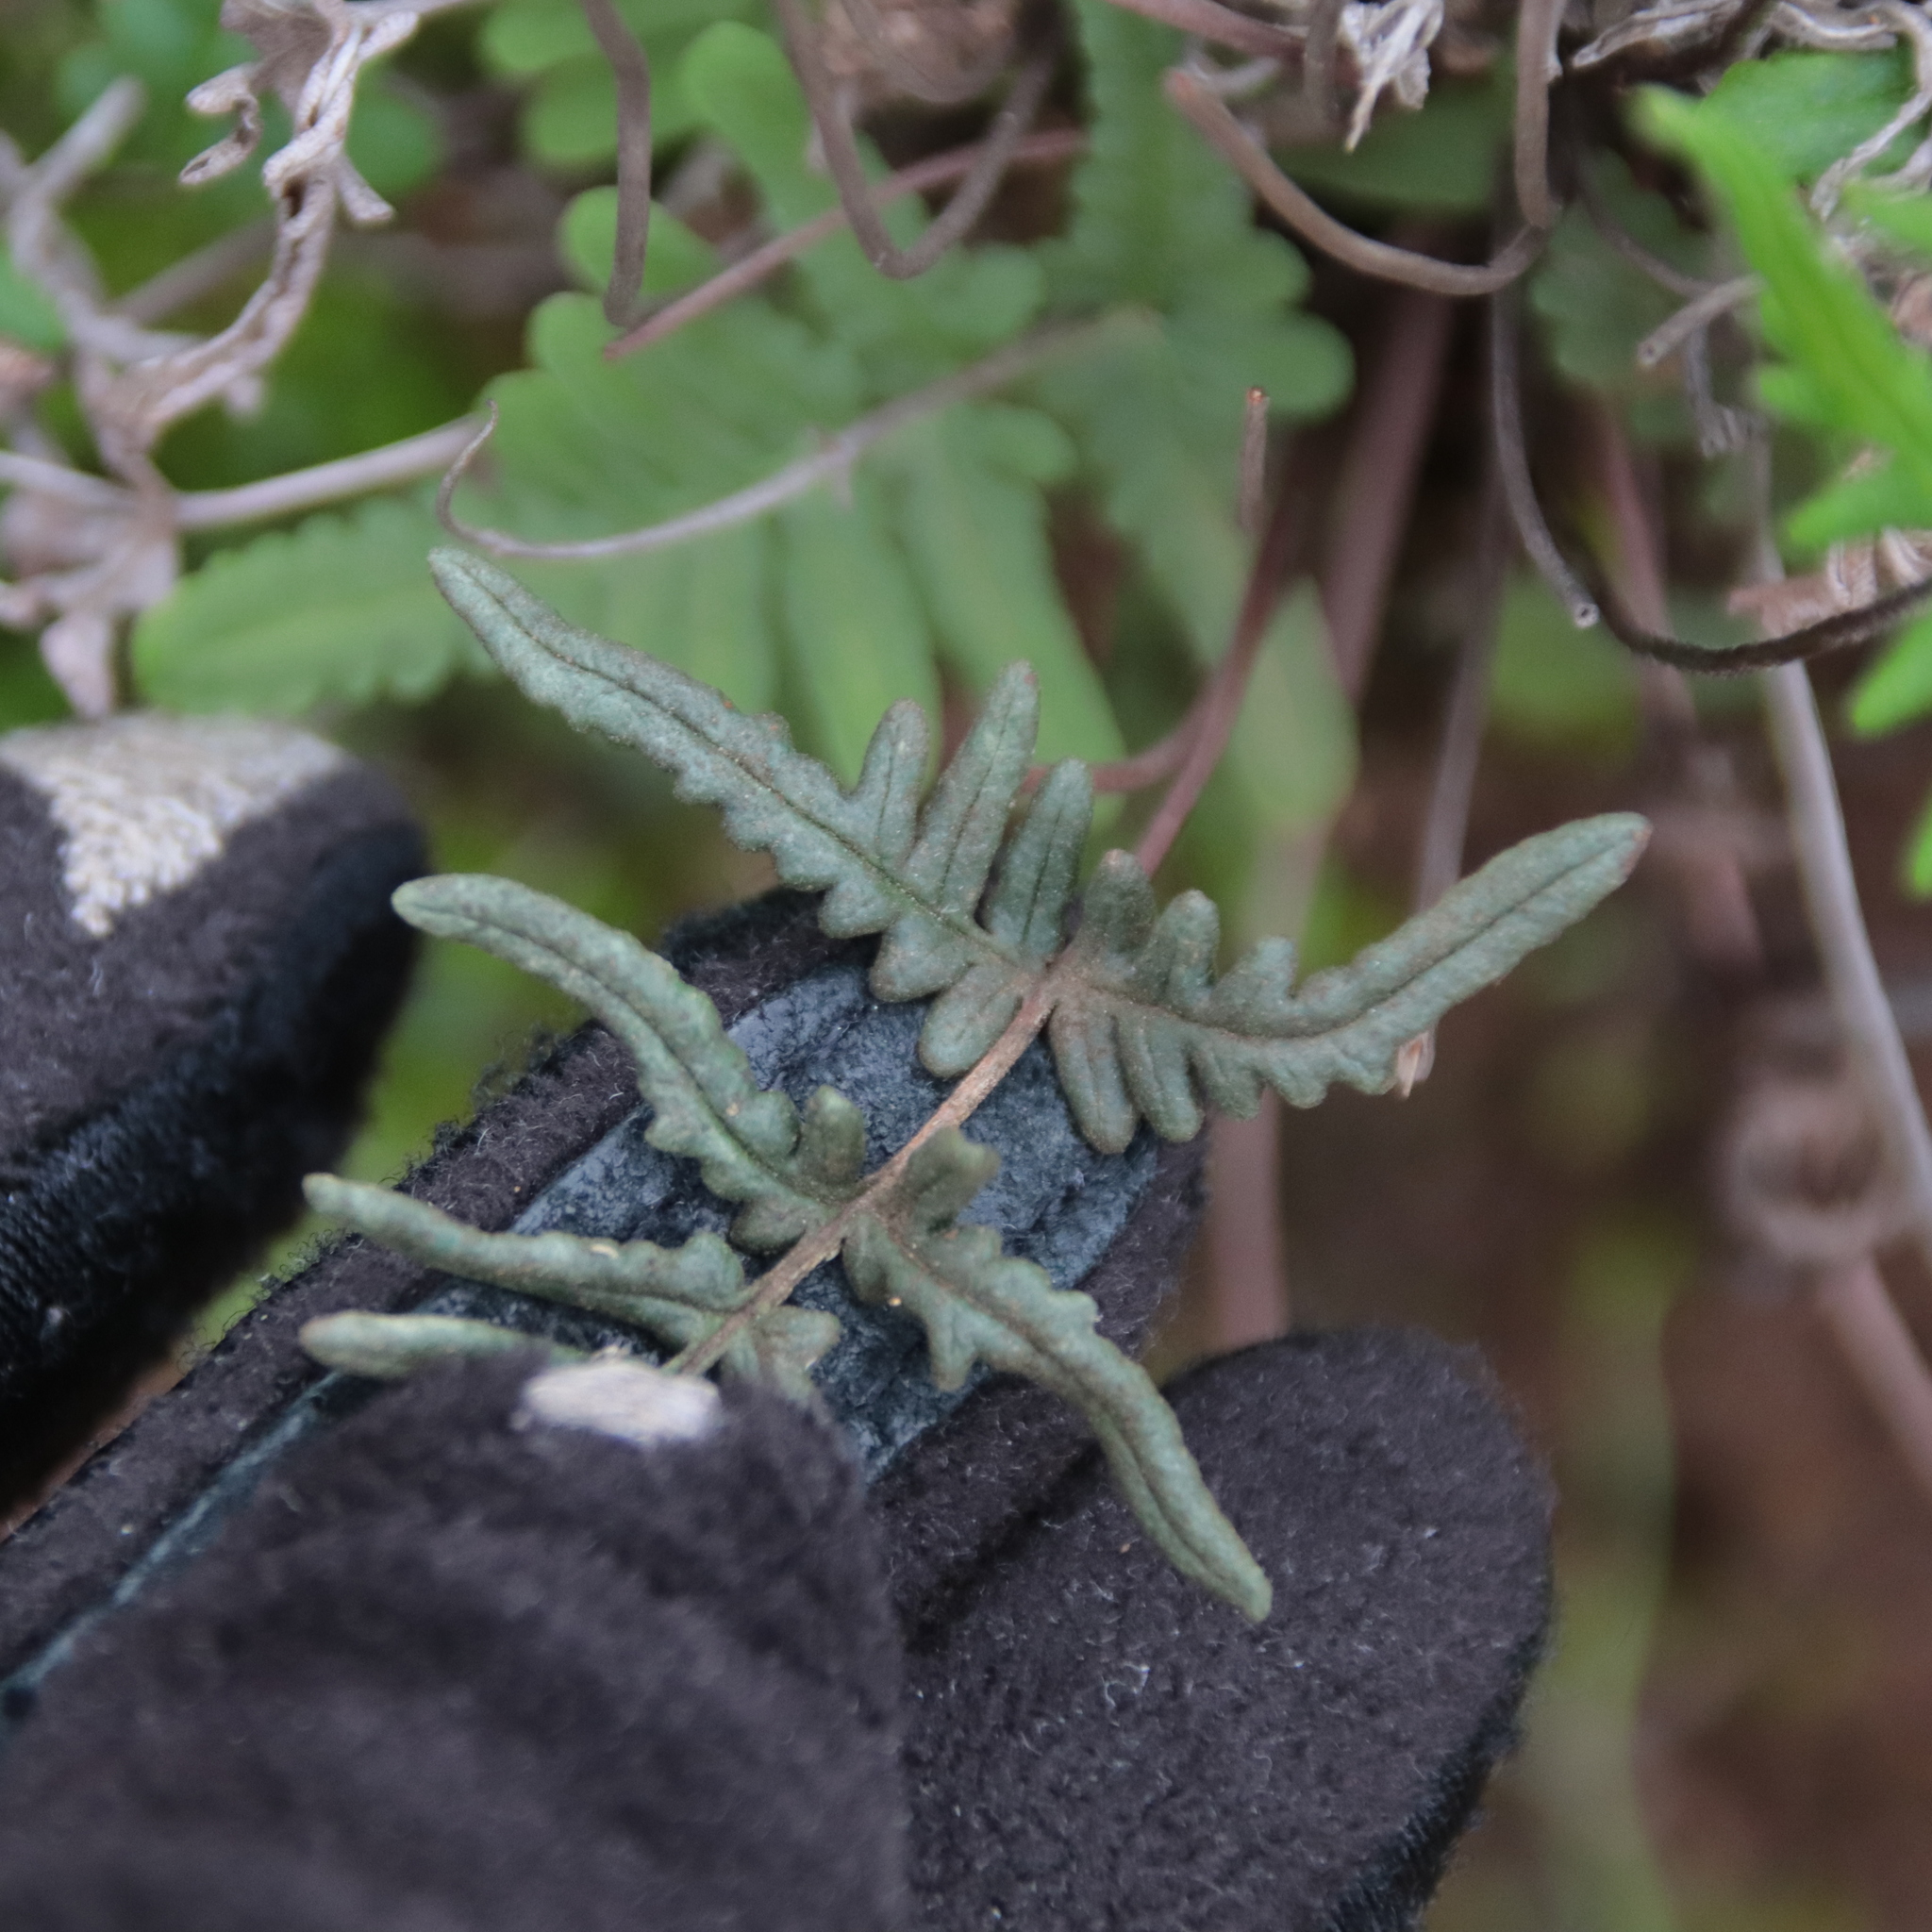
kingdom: Plantae
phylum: Tracheophyta
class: Polypodiopsida
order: Polypodiales
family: Pteridaceae
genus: Pentagramma
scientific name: Pentagramma viscosa
